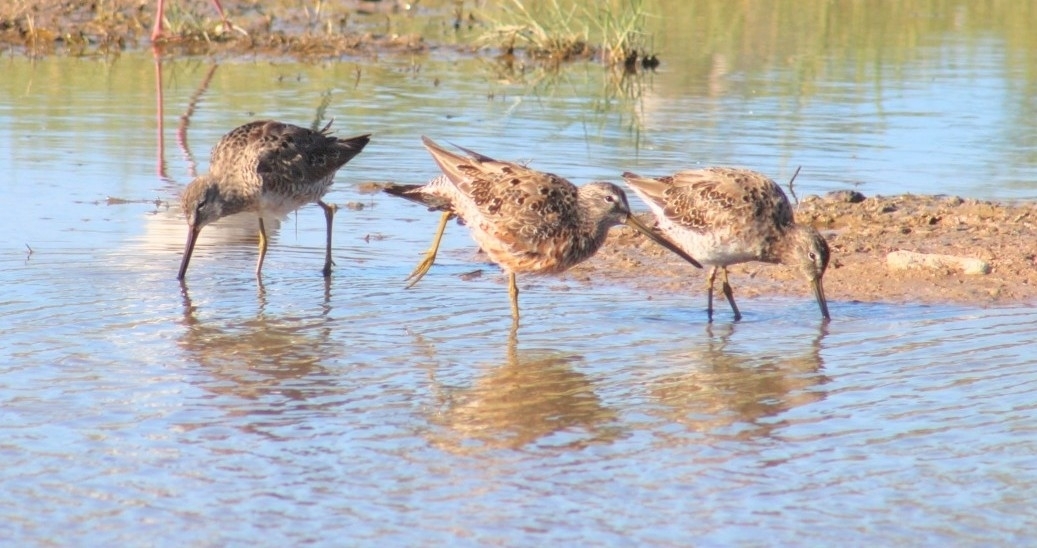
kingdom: Animalia
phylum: Chordata
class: Aves
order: Charadriiformes
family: Scolopacidae
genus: Limnodromus
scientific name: Limnodromus scolopaceus
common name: Long-billed dowitcher
